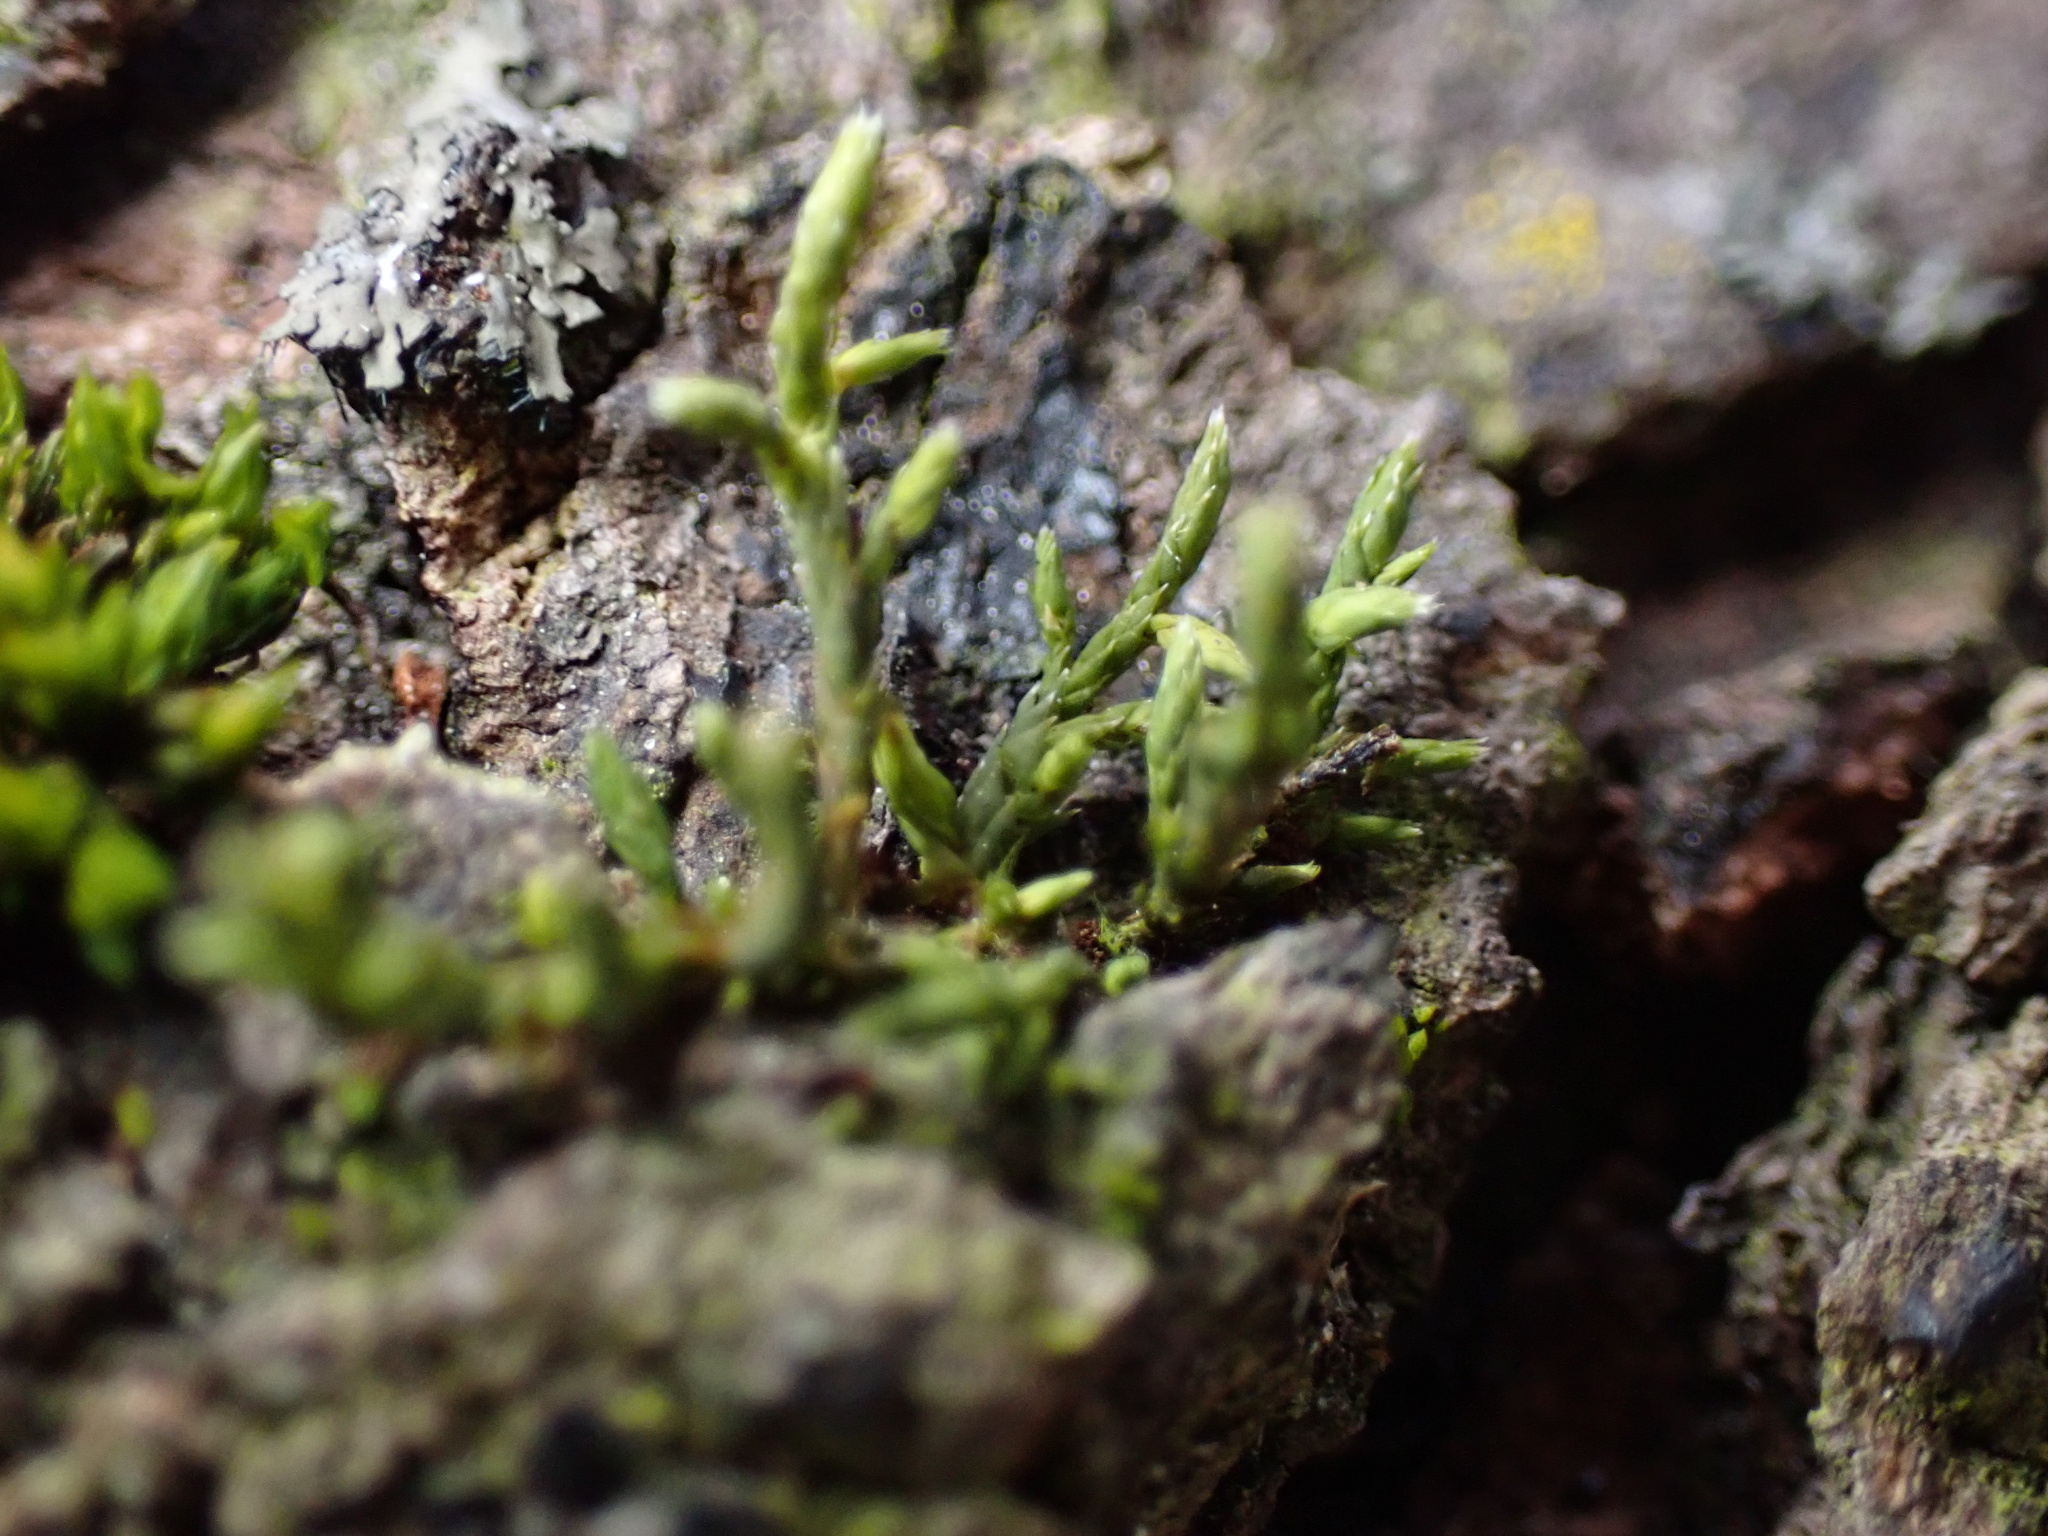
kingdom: Plantae
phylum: Bryophyta
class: Bryopsida
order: Hedwigiales
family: Hedwigiaceae
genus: Hedwigia
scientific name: Hedwigia ciliata
